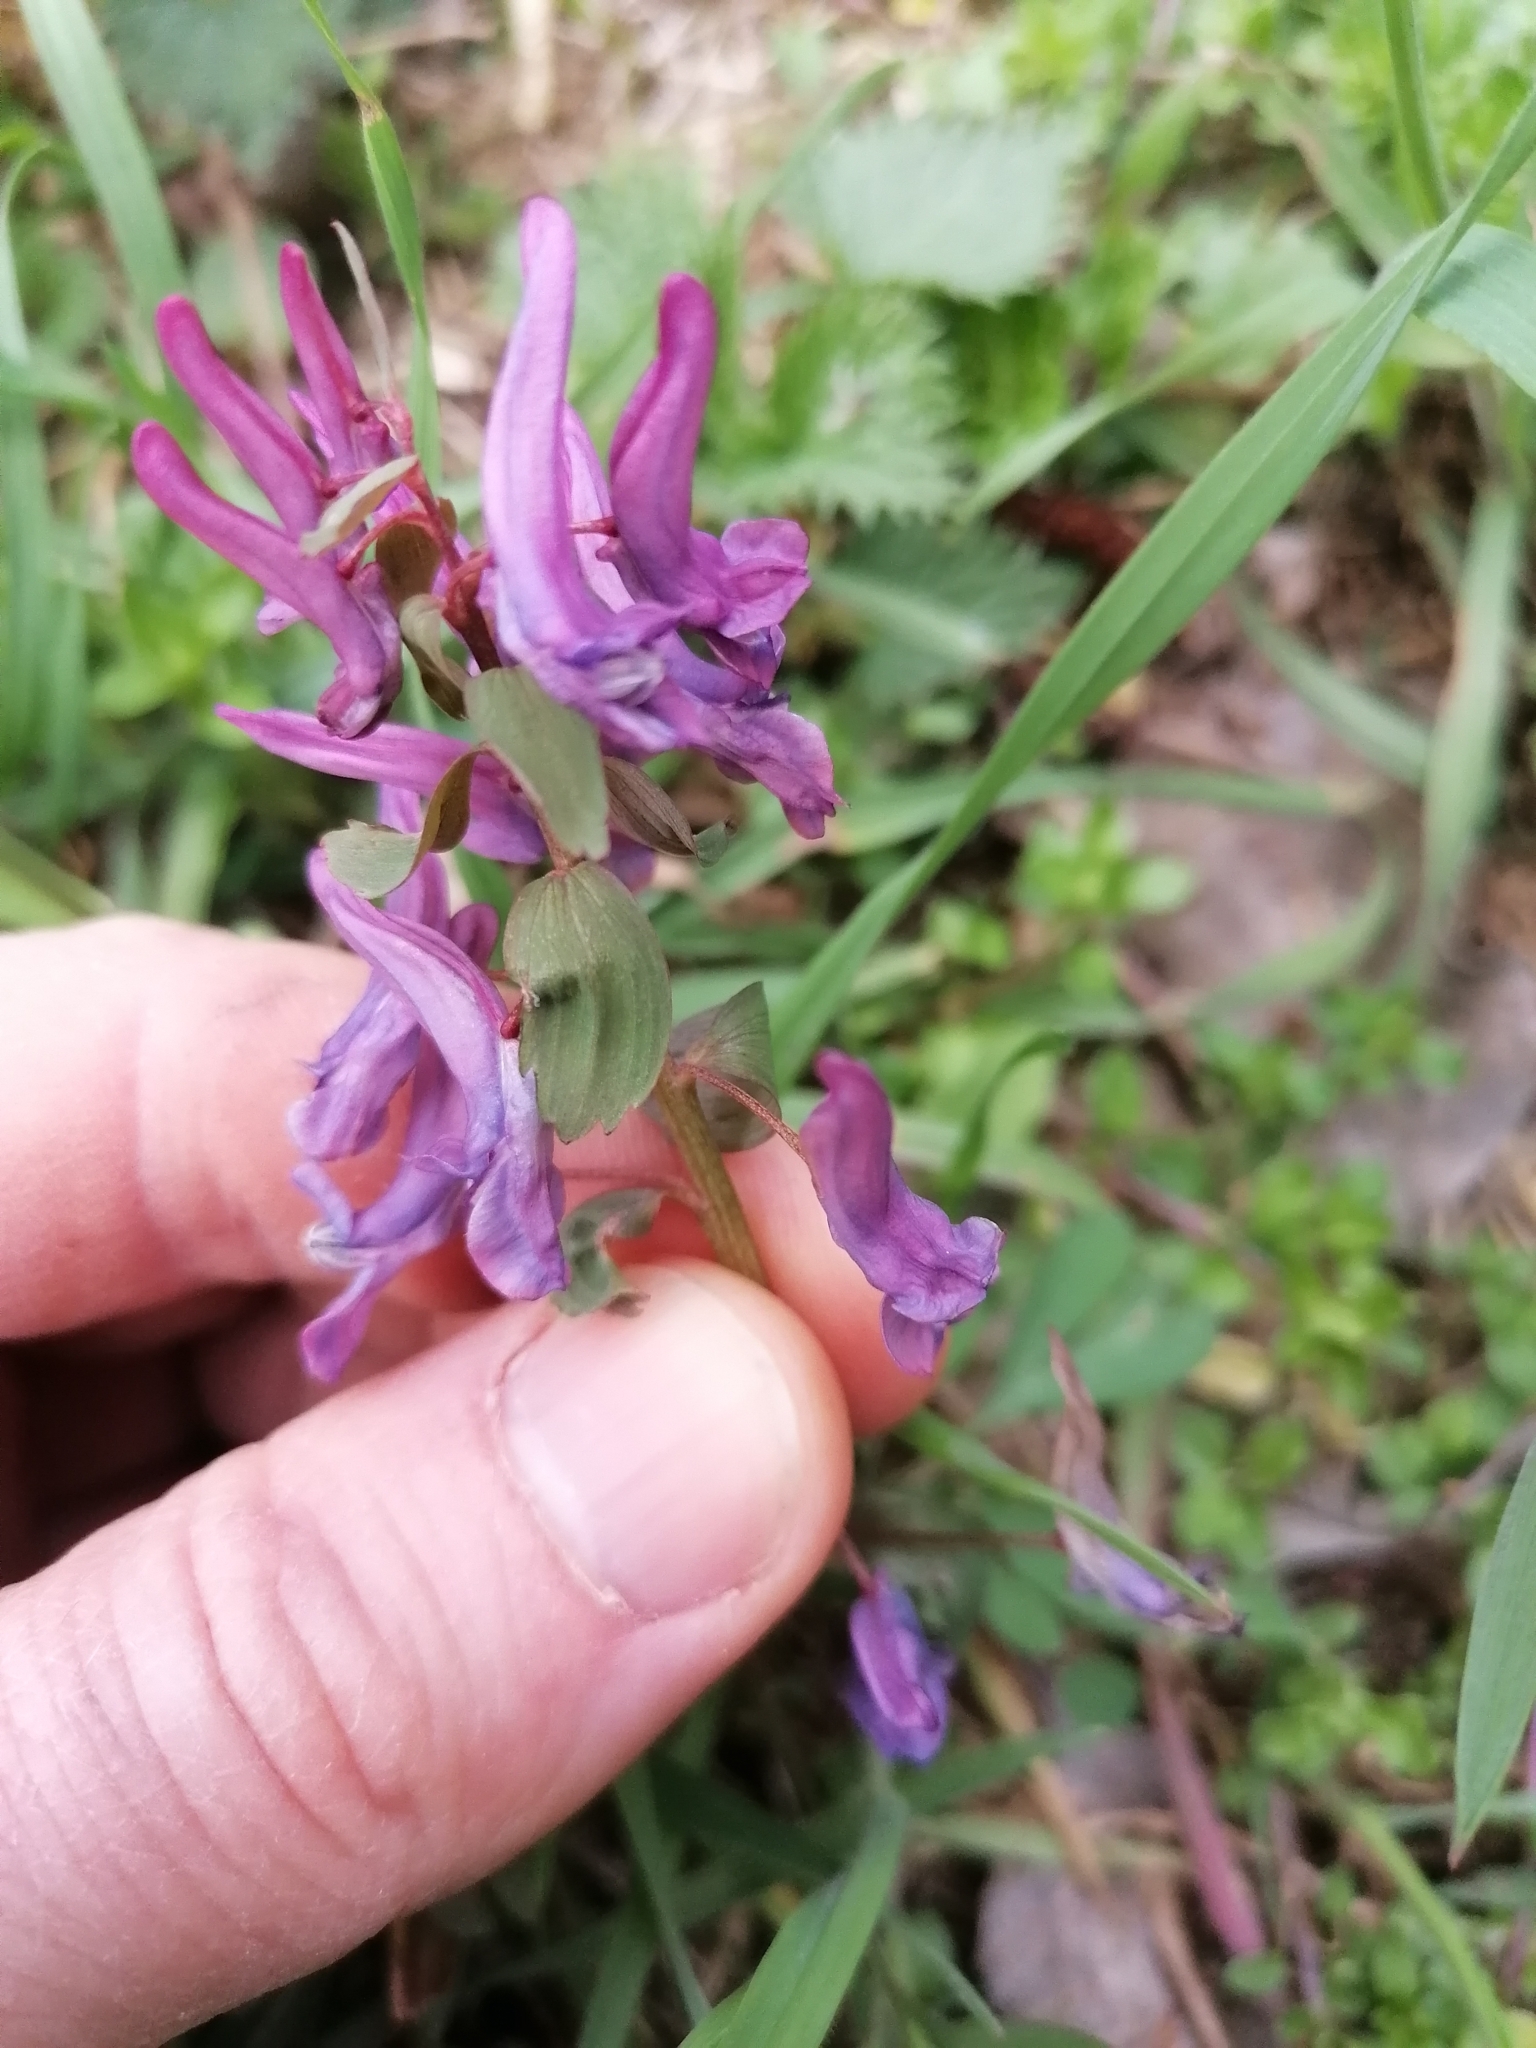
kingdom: Plantae
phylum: Tracheophyta
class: Magnoliopsida
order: Ranunculales
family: Papaveraceae
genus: Corydalis
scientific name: Corydalis hausmannii
